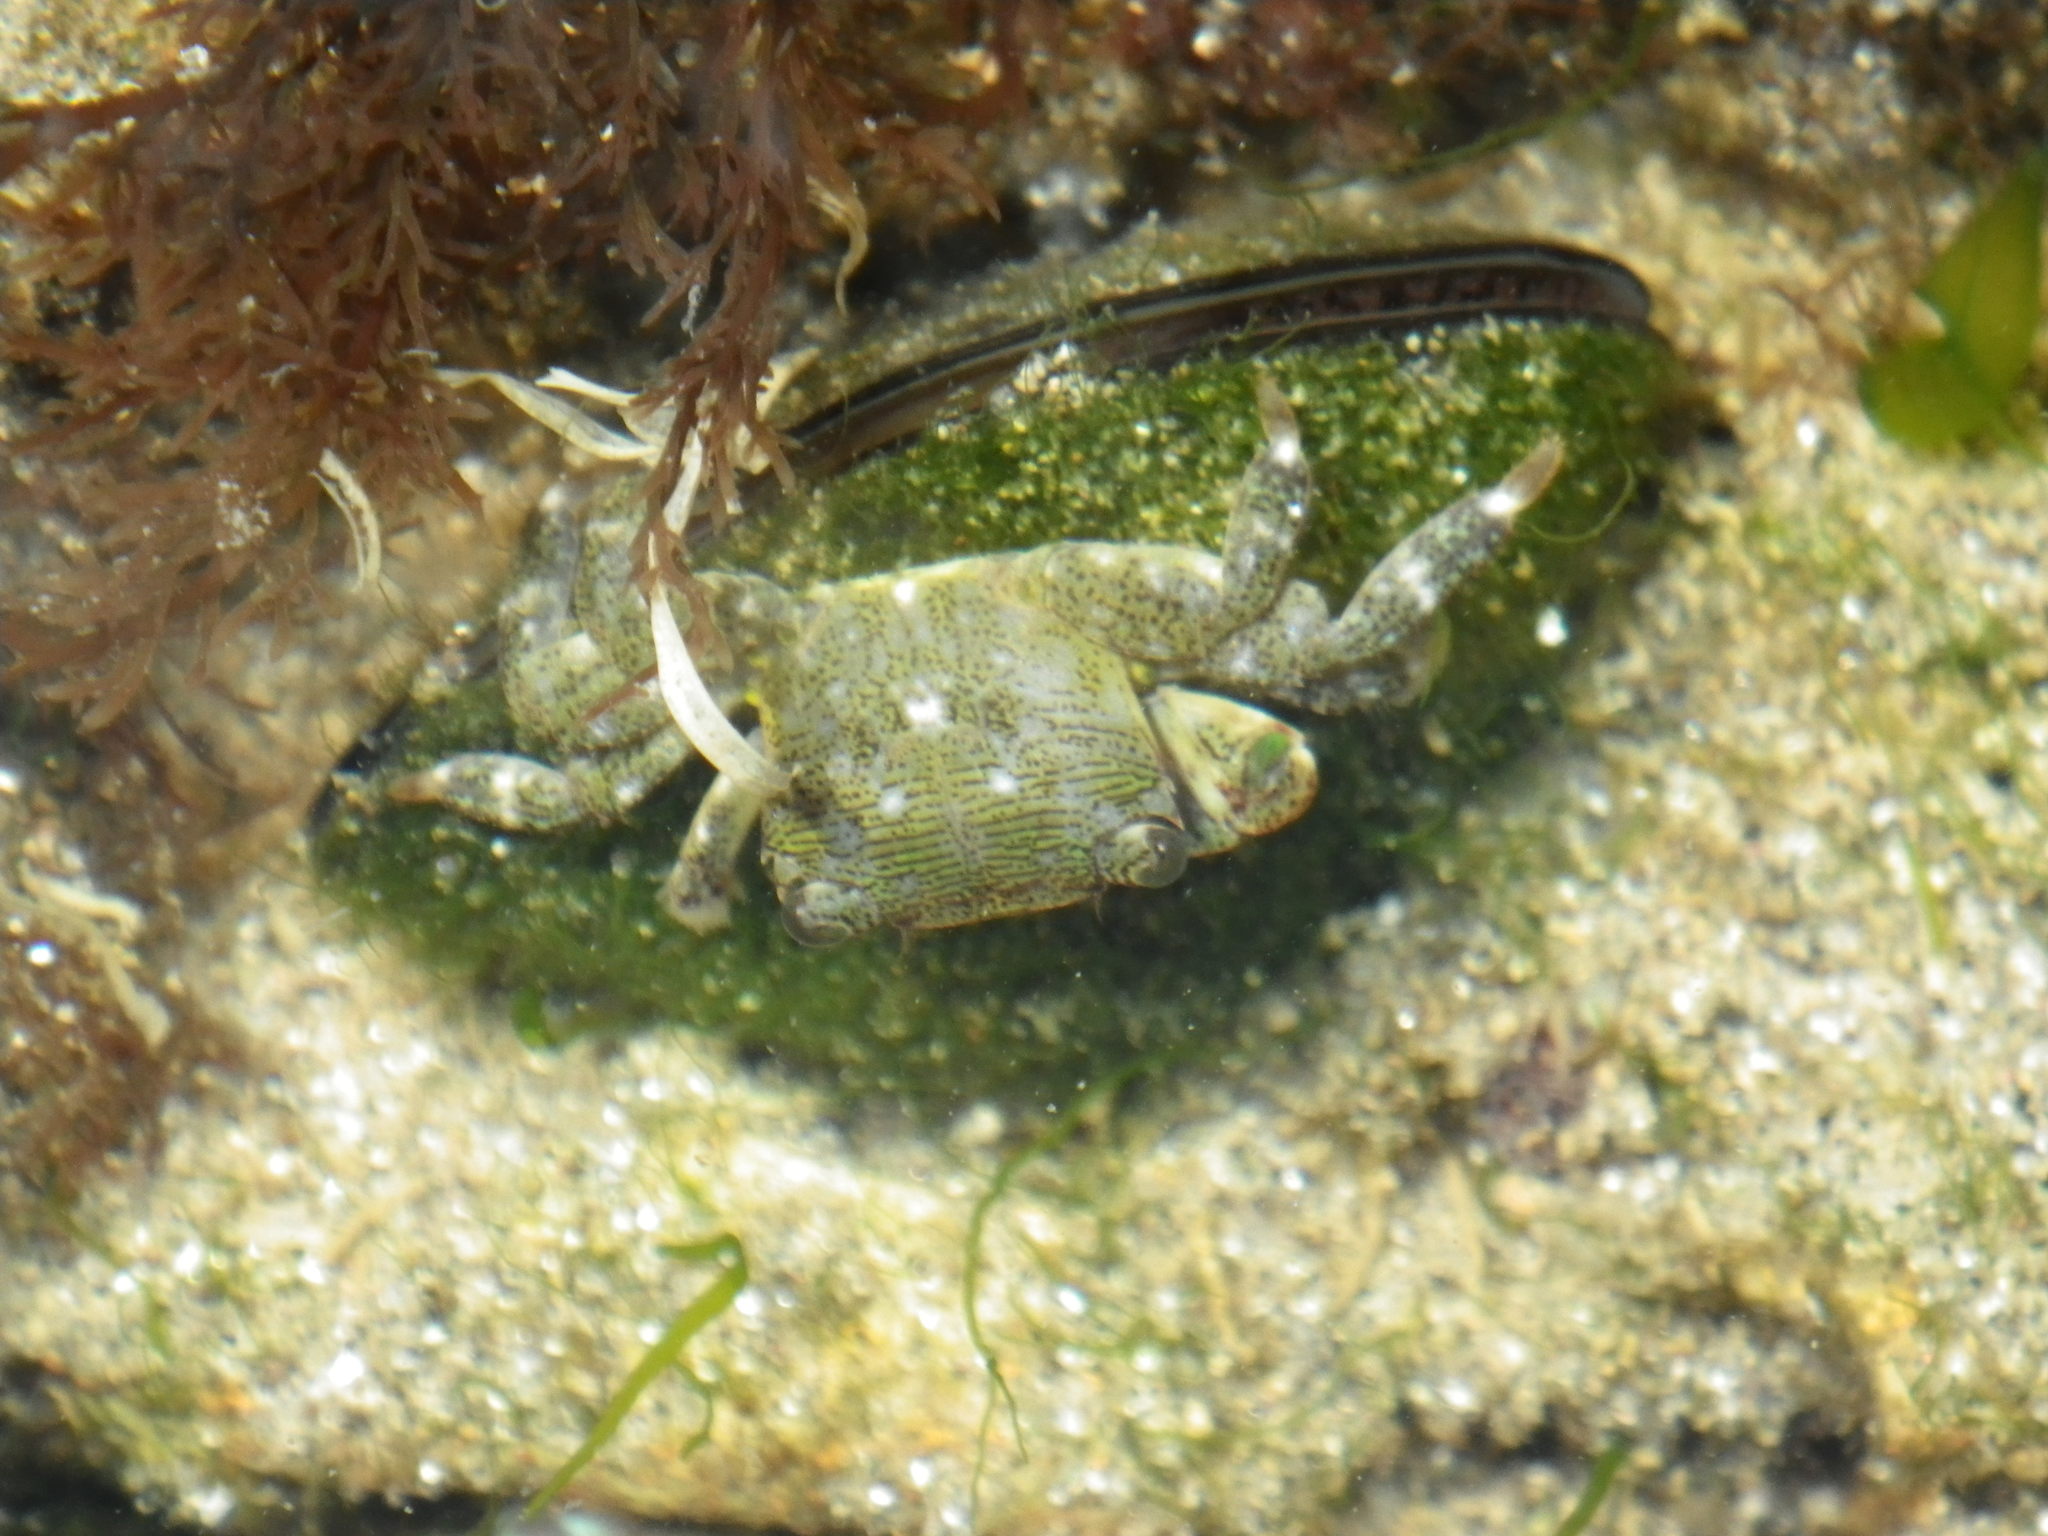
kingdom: Animalia
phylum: Arthropoda
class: Malacostraca
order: Decapoda
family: Grapsidae
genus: Pachygrapsus
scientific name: Pachygrapsus crassipes
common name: Striped shore crab
